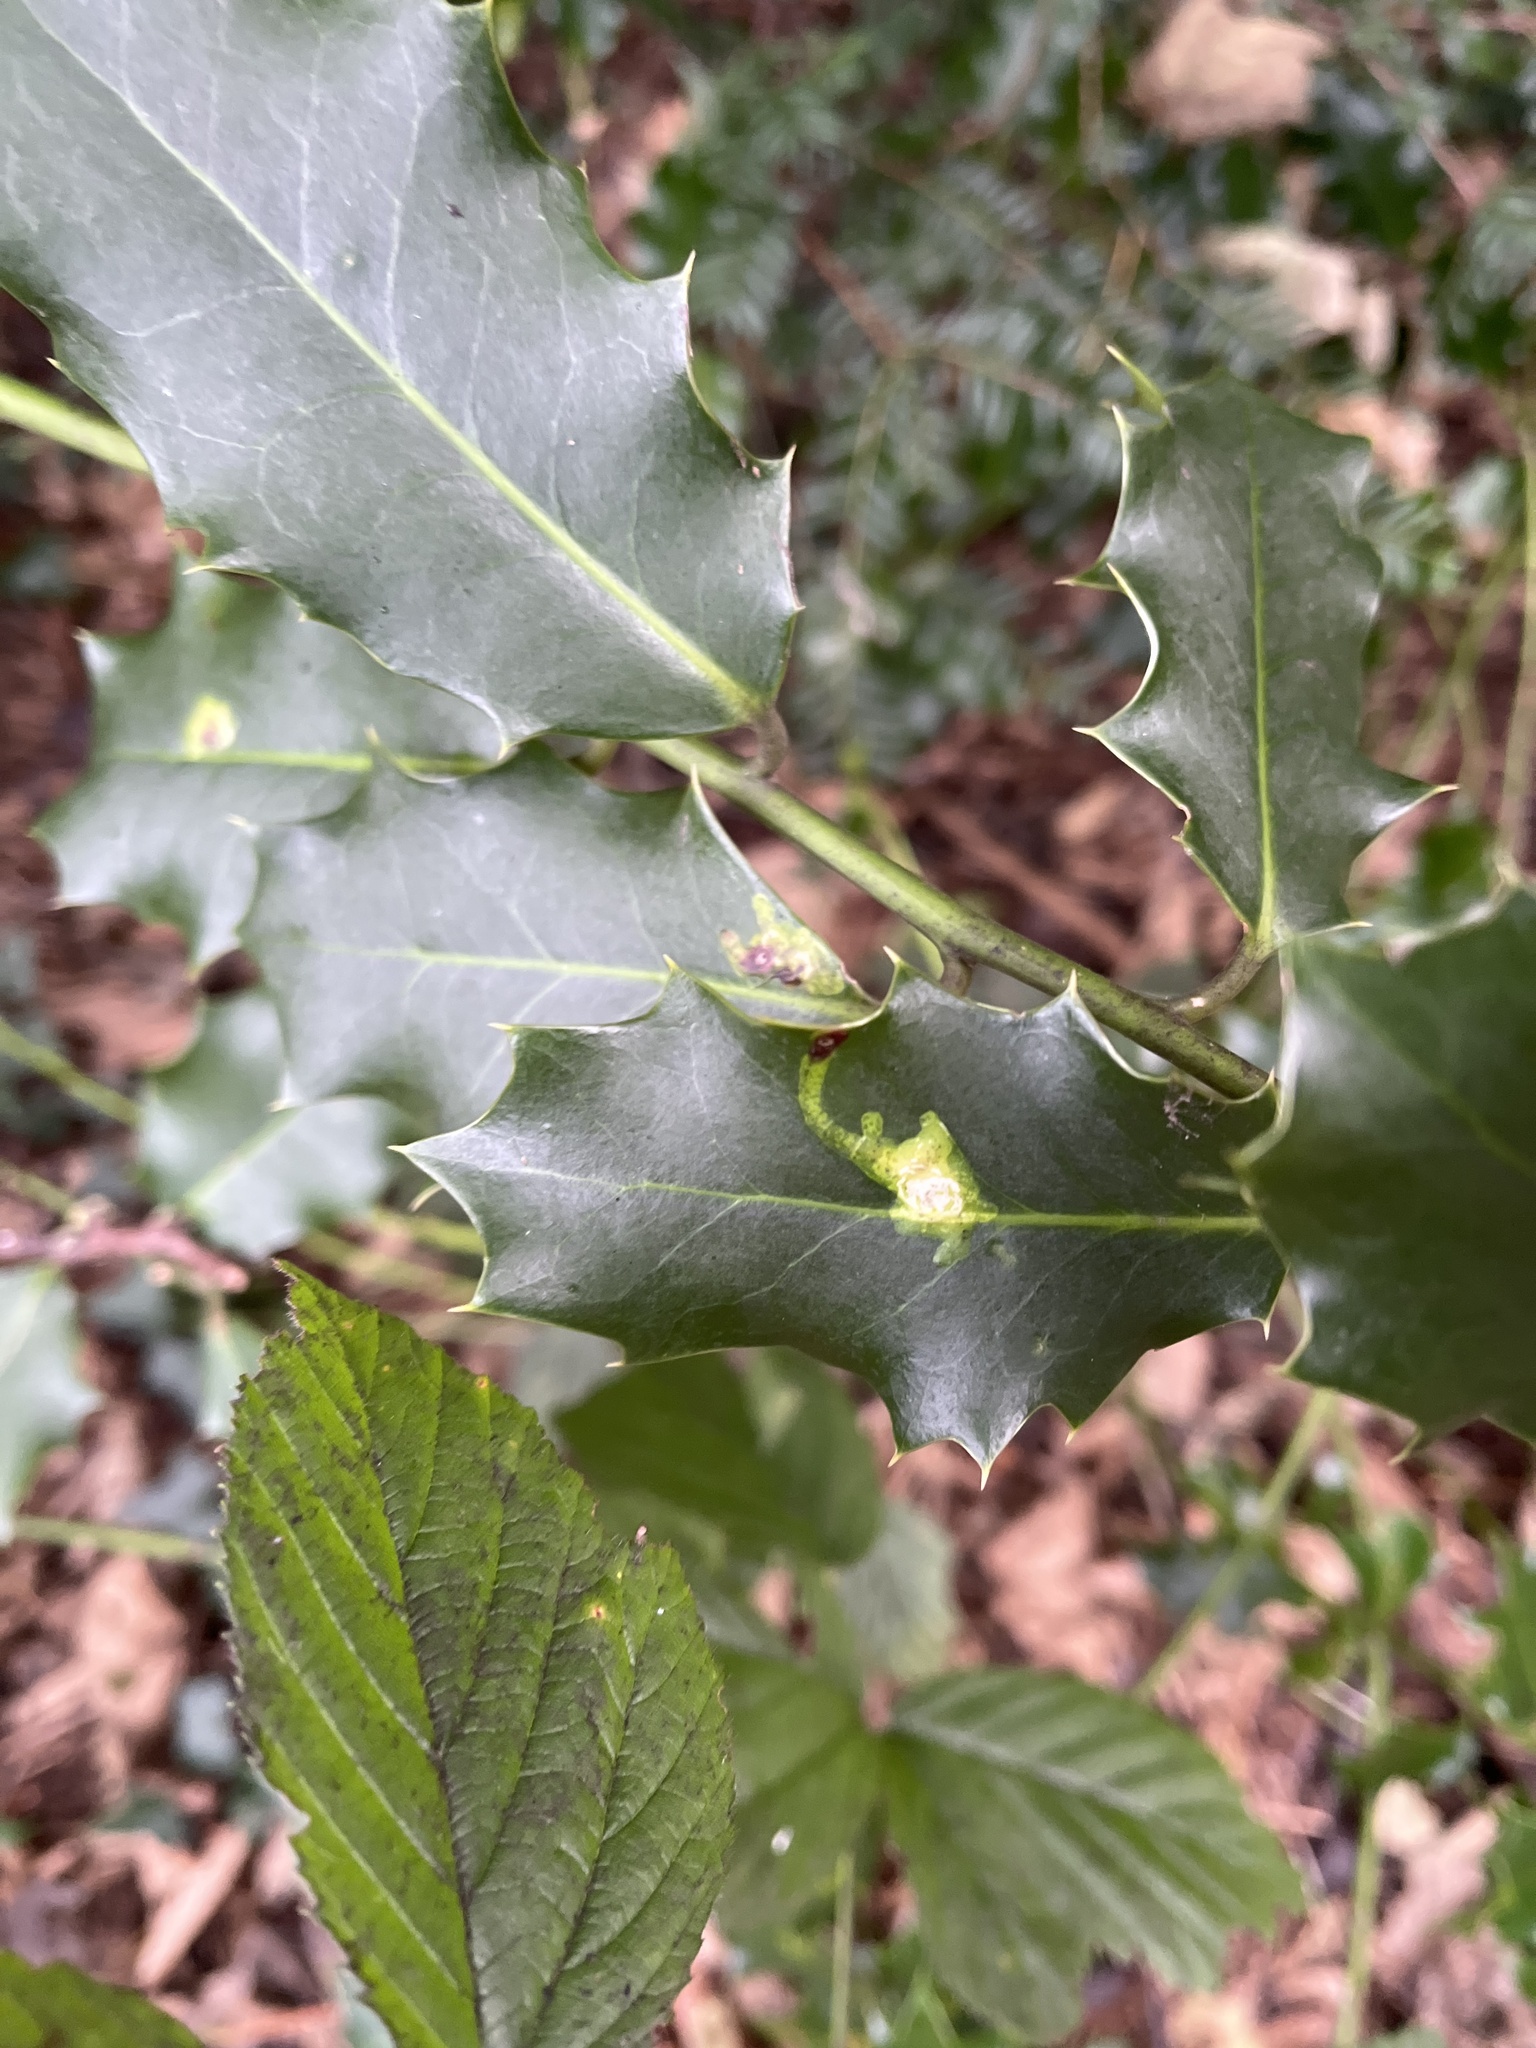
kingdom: Animalia
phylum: Arthropoda
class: Insecta
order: Diptera
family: Agromyzidae
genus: Phytomyza
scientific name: Phytomyza ilicis
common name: Holly leafminer
